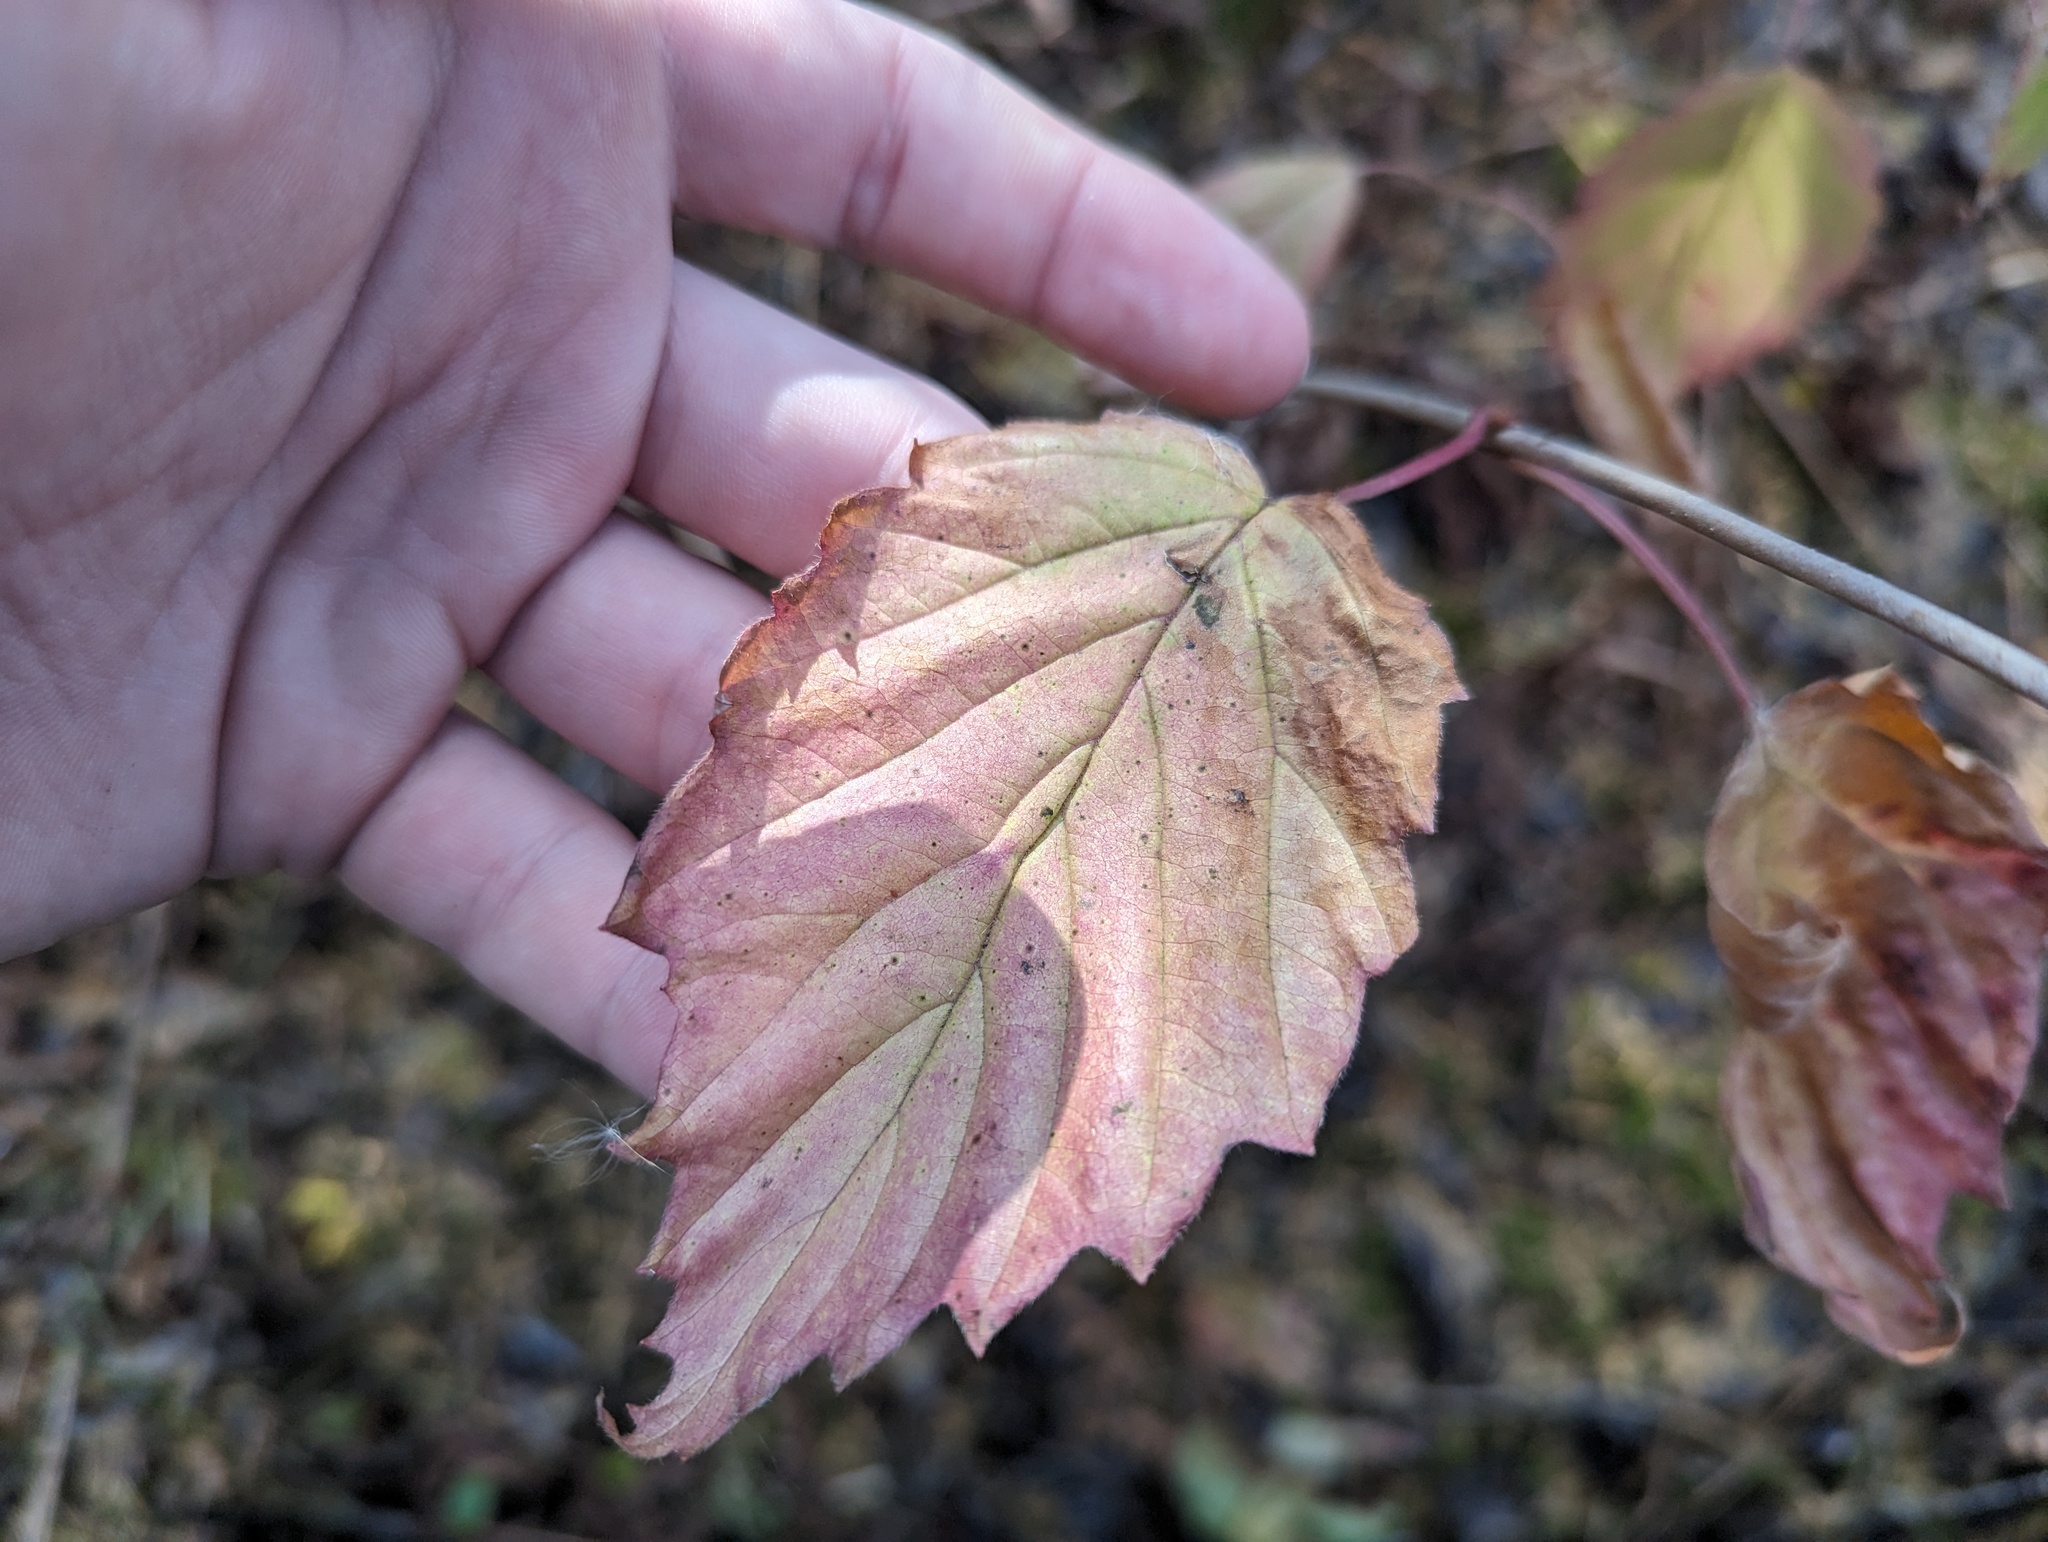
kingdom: Plantae
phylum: Tracheophyta
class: Magnoliopsida
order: Dipsacales
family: Viburnaceae
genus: Viburnum
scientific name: Viburnum recognitum
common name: Northern arrow-wood
